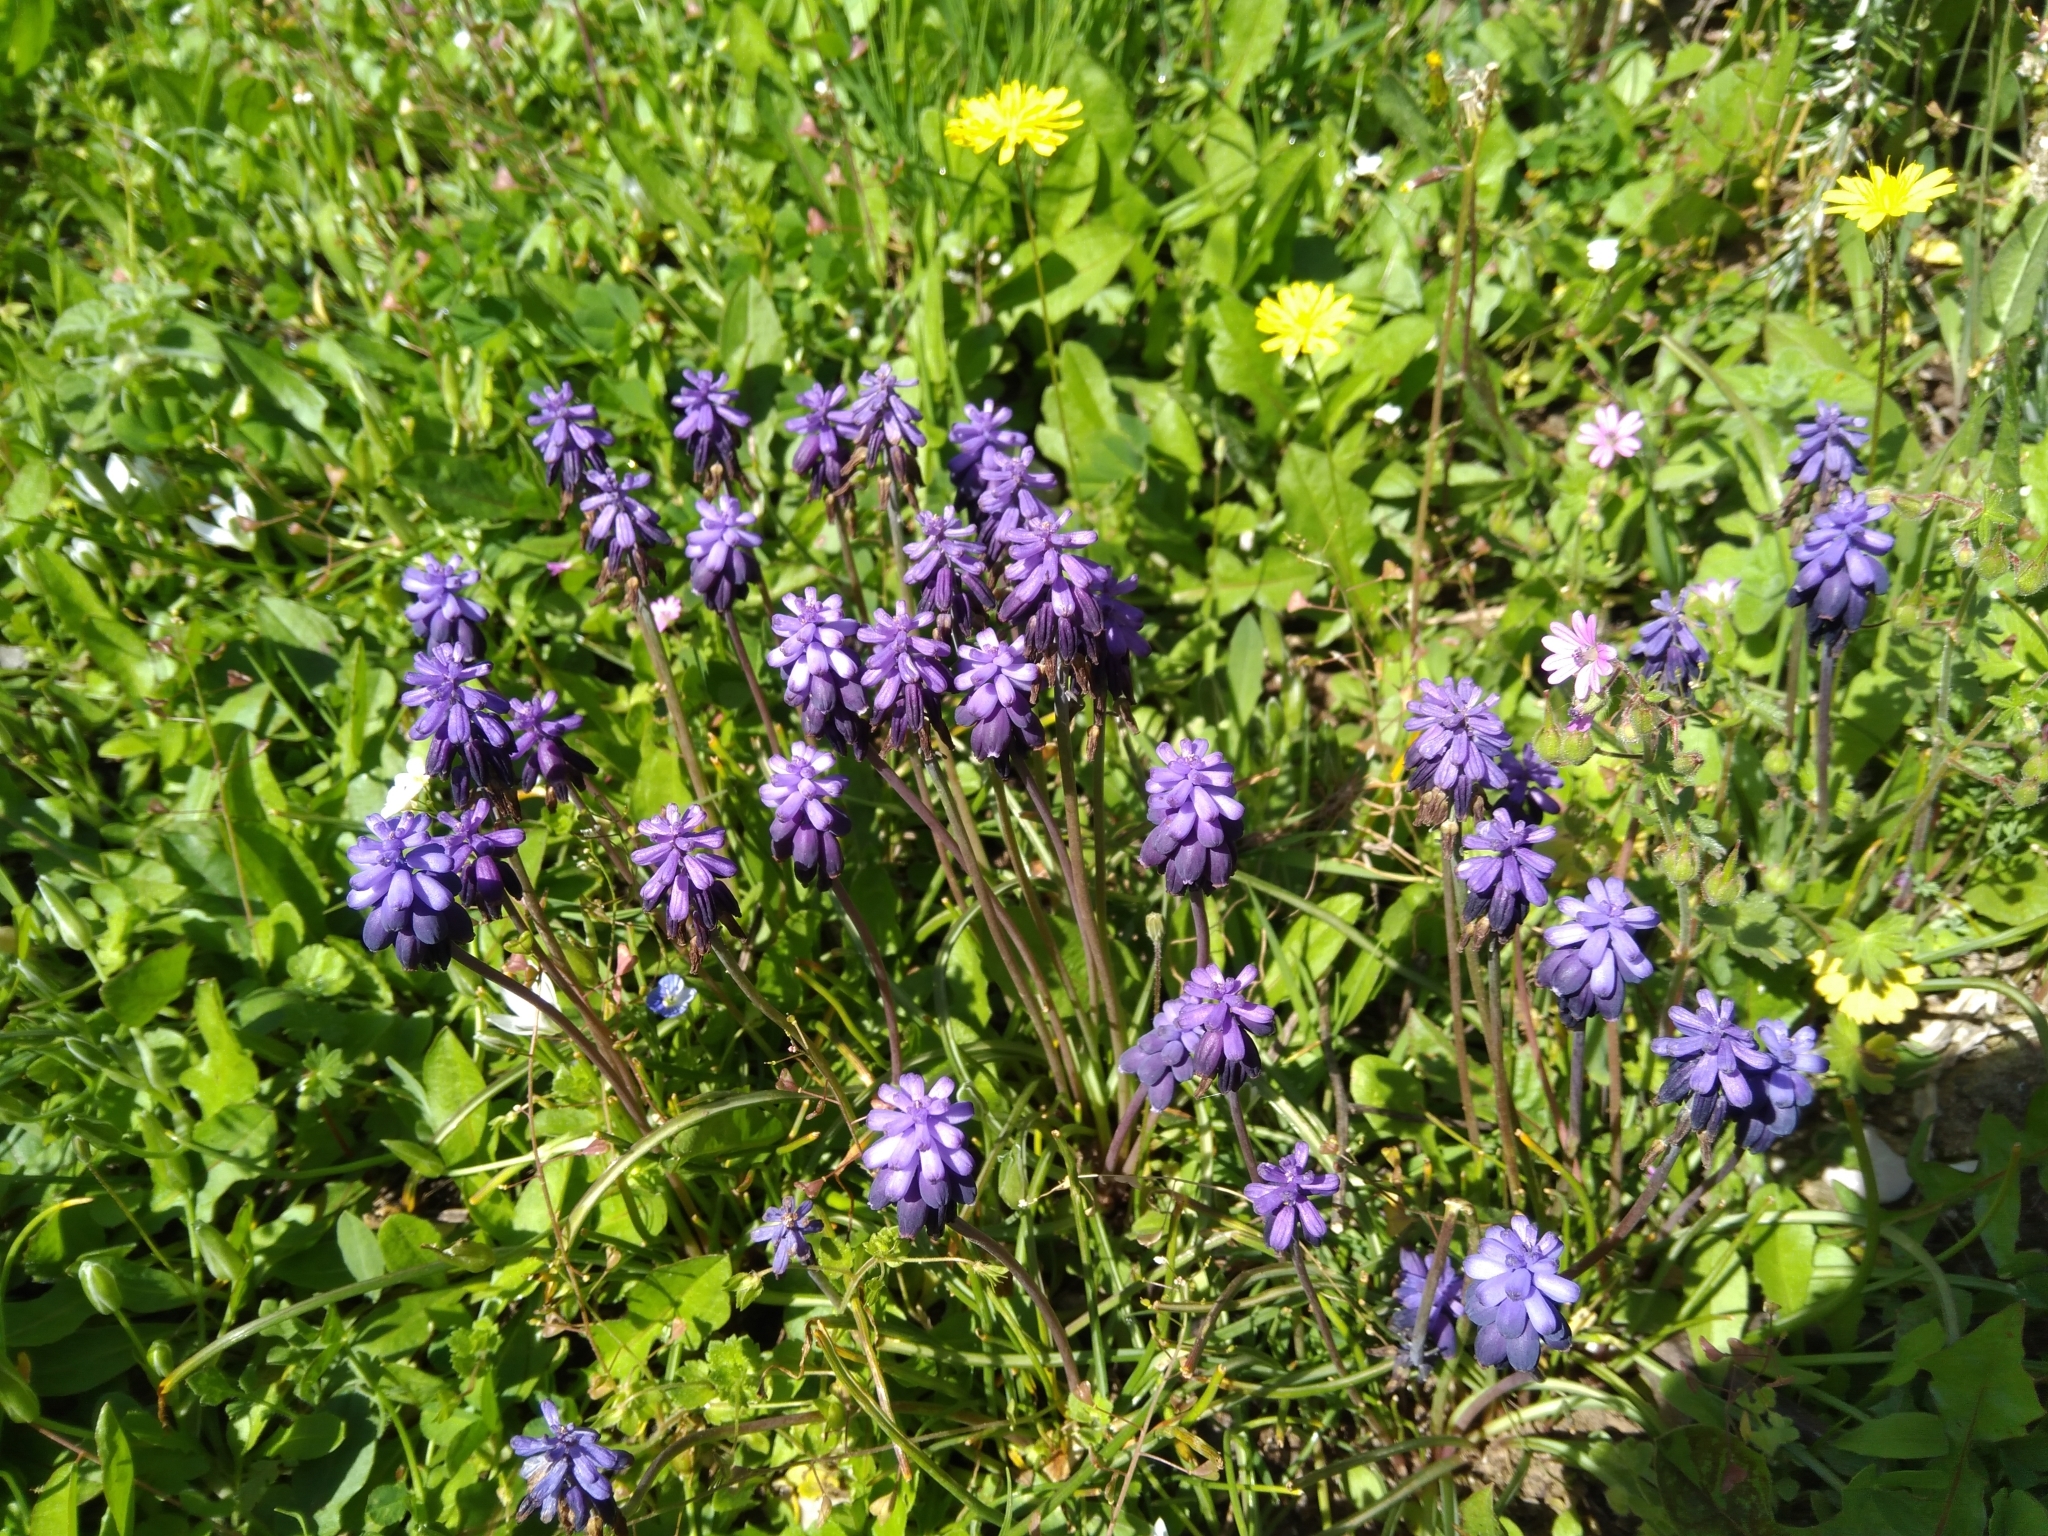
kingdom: Plantae
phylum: Tracheophyta
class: Liliopsida
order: Asparagales
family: Asparagaceae
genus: Muscari
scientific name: Muscari neglectum
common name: Grape-hyacinth
